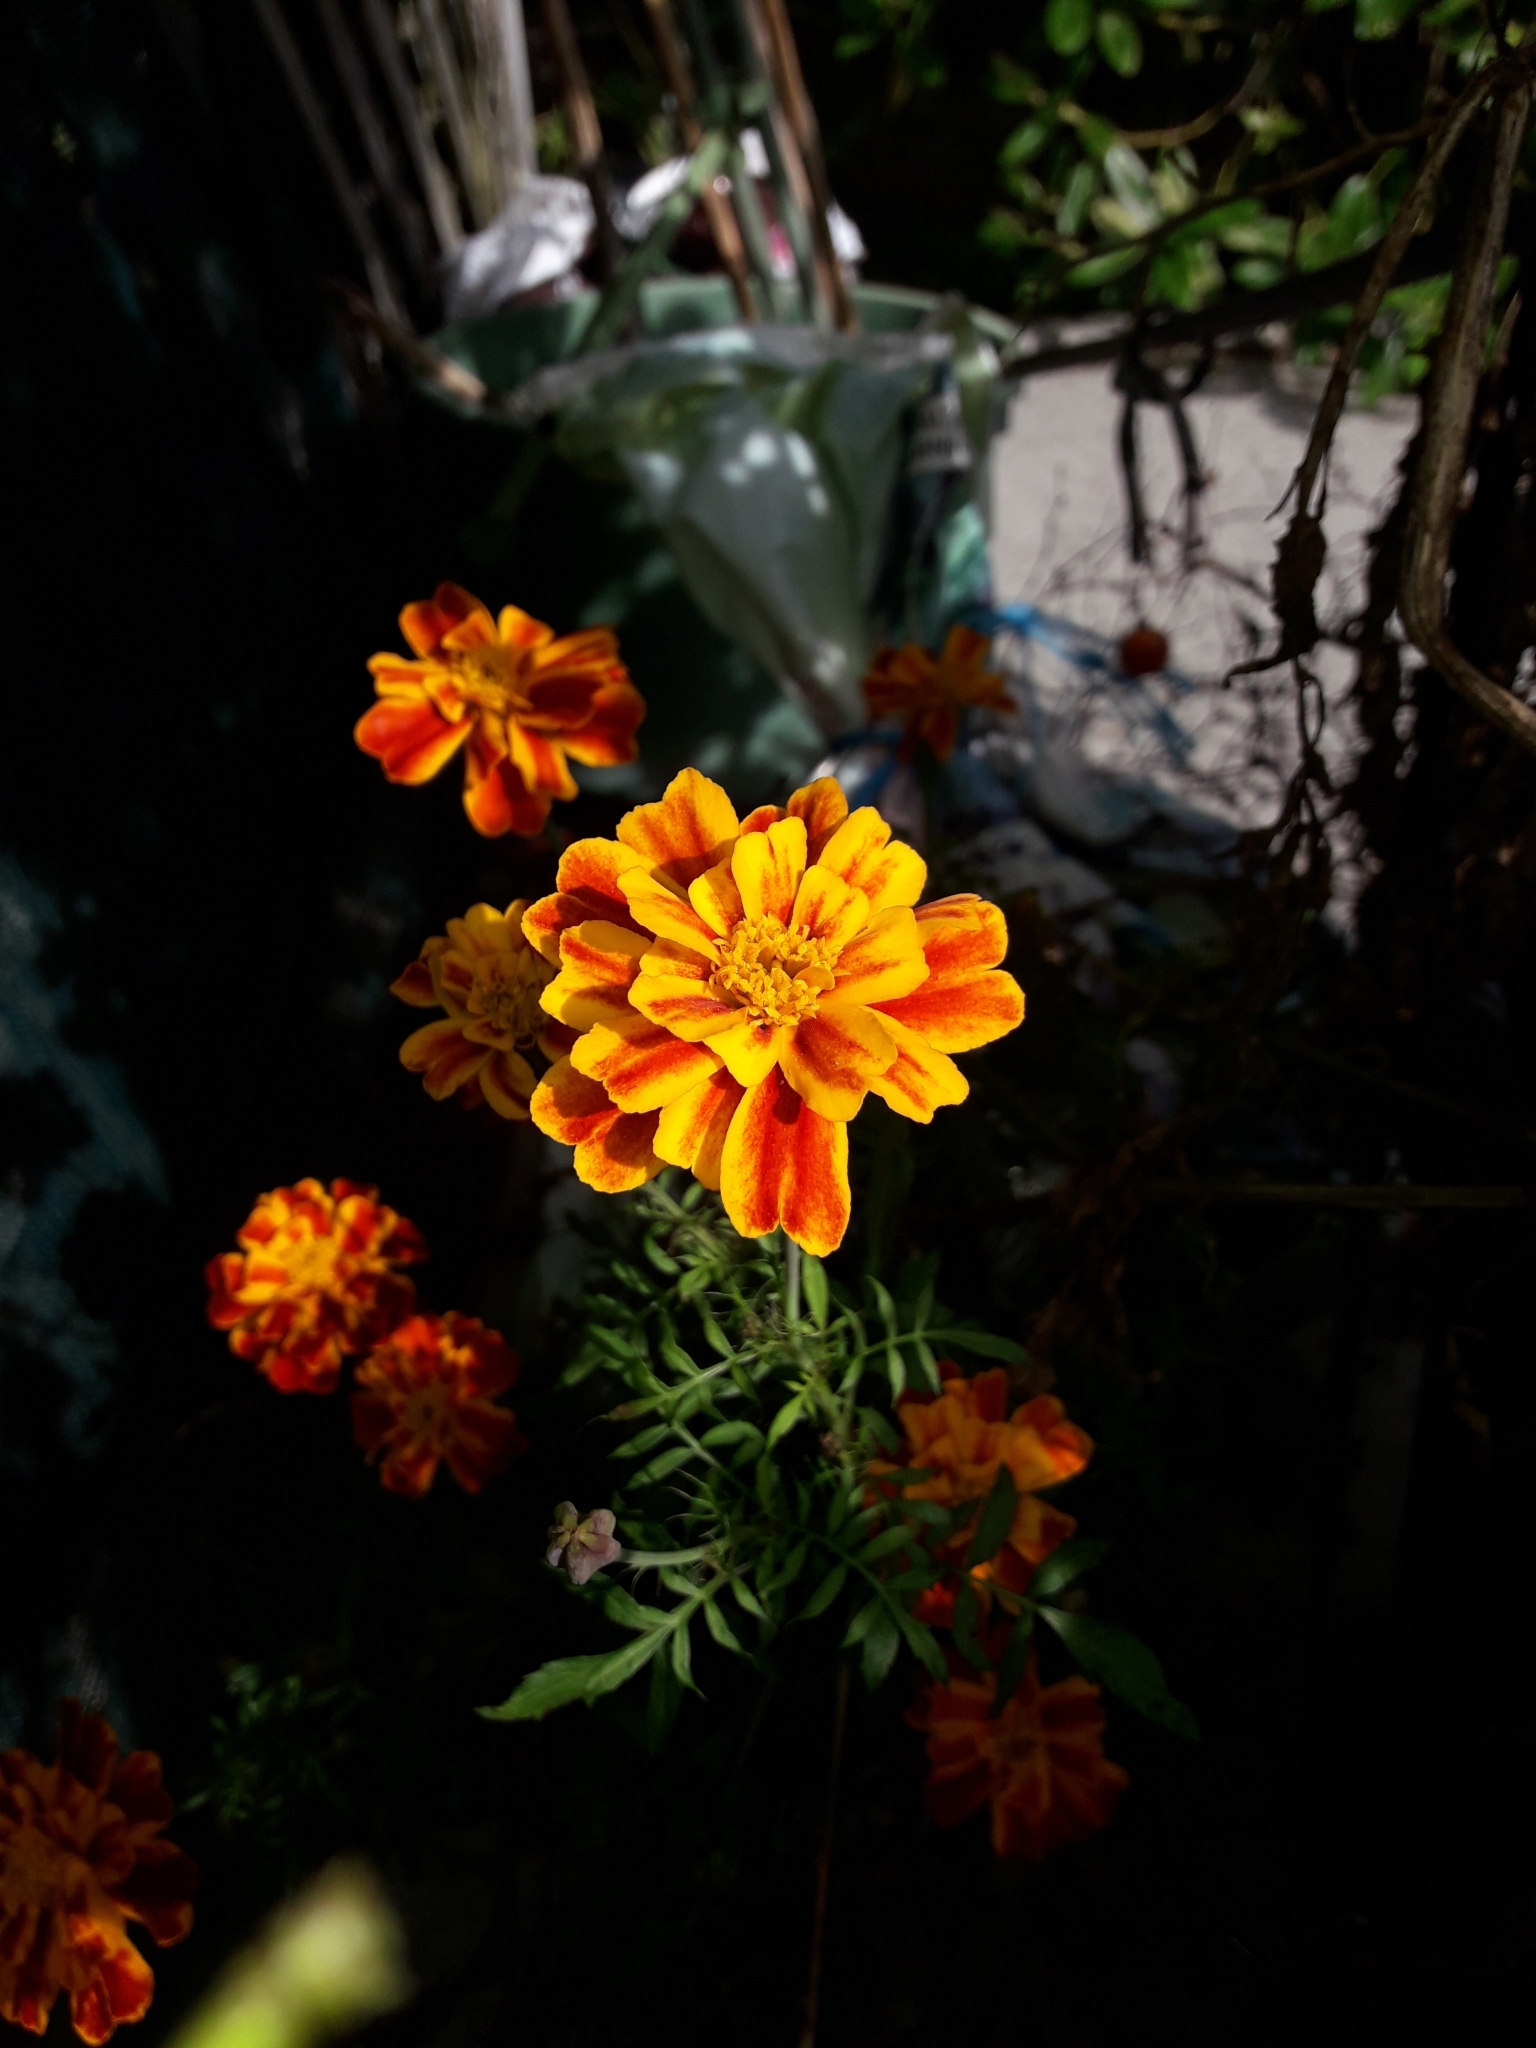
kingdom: Plantae
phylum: Tracheophyta
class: Magnoliopsida
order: Asterales
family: Asteraceae
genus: Tagetes
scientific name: Tagetes erecta
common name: African marigold
